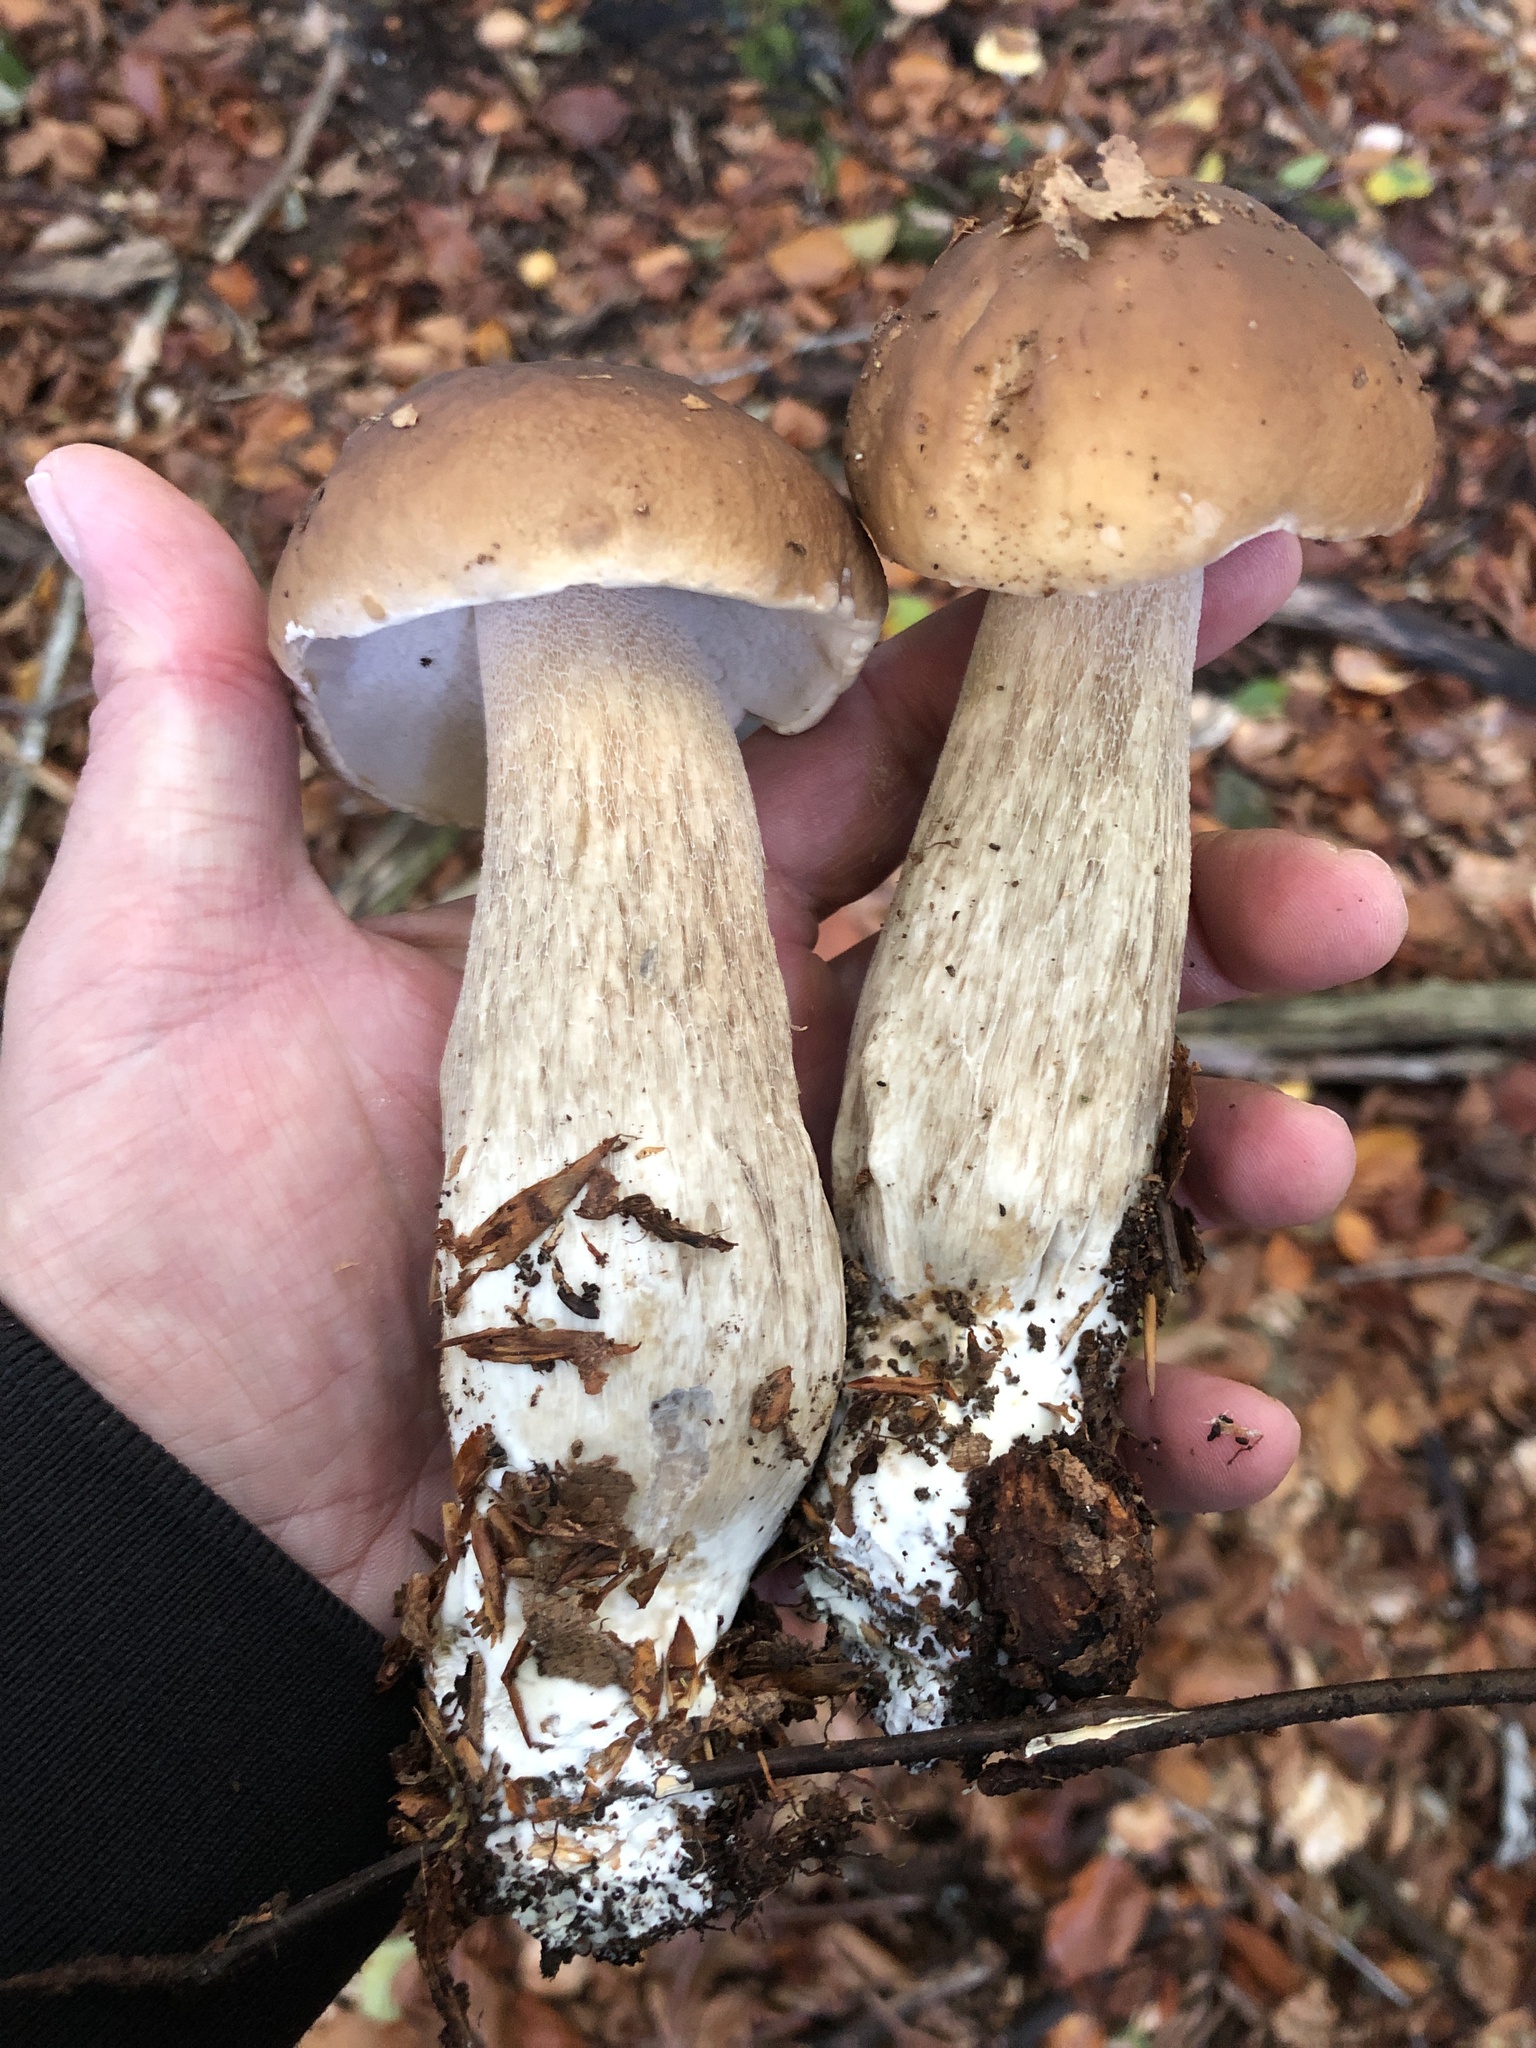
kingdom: Fungi
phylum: Basidiomycota
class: Agaricomycetes
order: Boletales
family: Boletaceae
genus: Boletus
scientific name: Boletus edulis
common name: Cep
